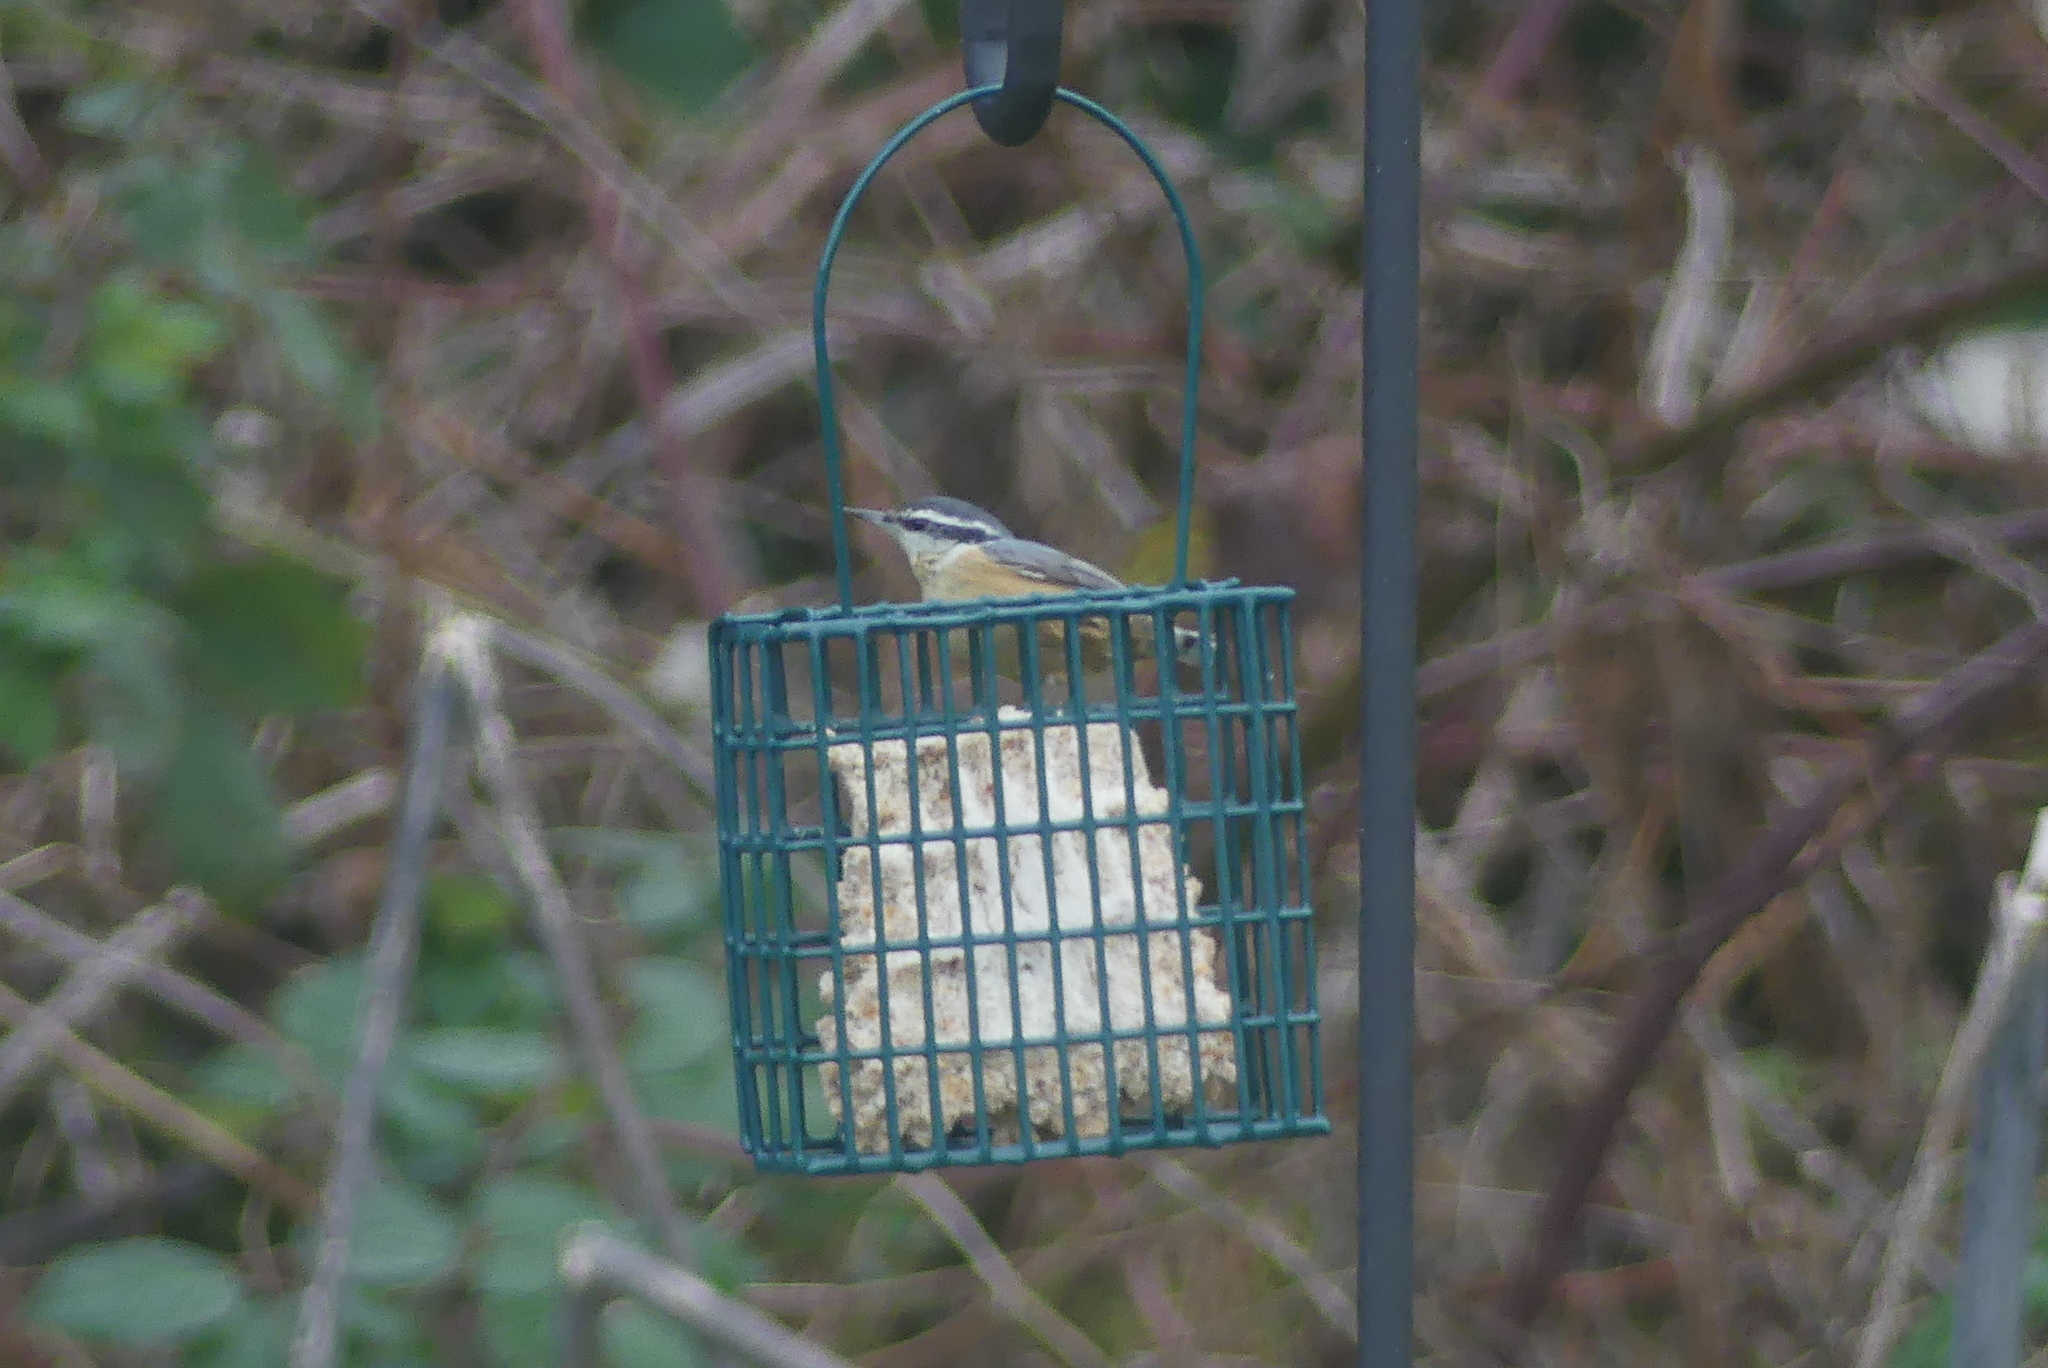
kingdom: Animalia
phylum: Chordata
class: Aves
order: Passeriformes
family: Sittidae
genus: Sitta
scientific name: Sitta canadensis
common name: Red-breasted nuthatch
